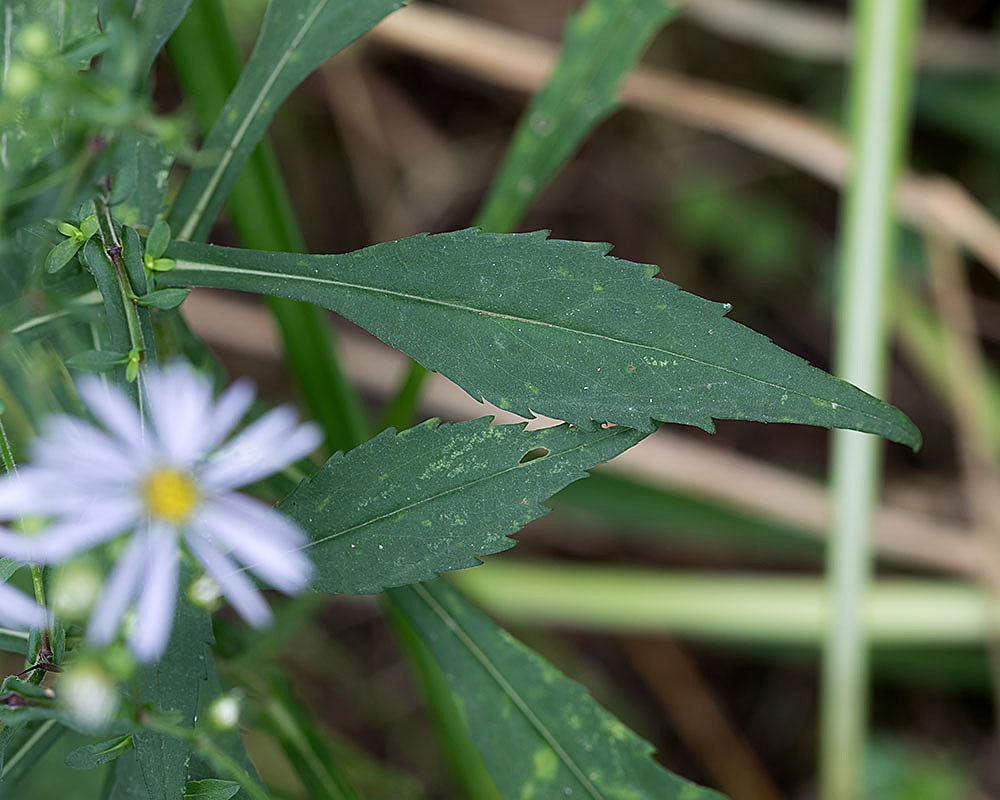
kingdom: Plantae
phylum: Tracheophyta
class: Magnoliopsida
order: Asterales
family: Asteraceae
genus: Symphyotrichum
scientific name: Symphyotrichum prenanthoides
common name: Crooked-stem aster
